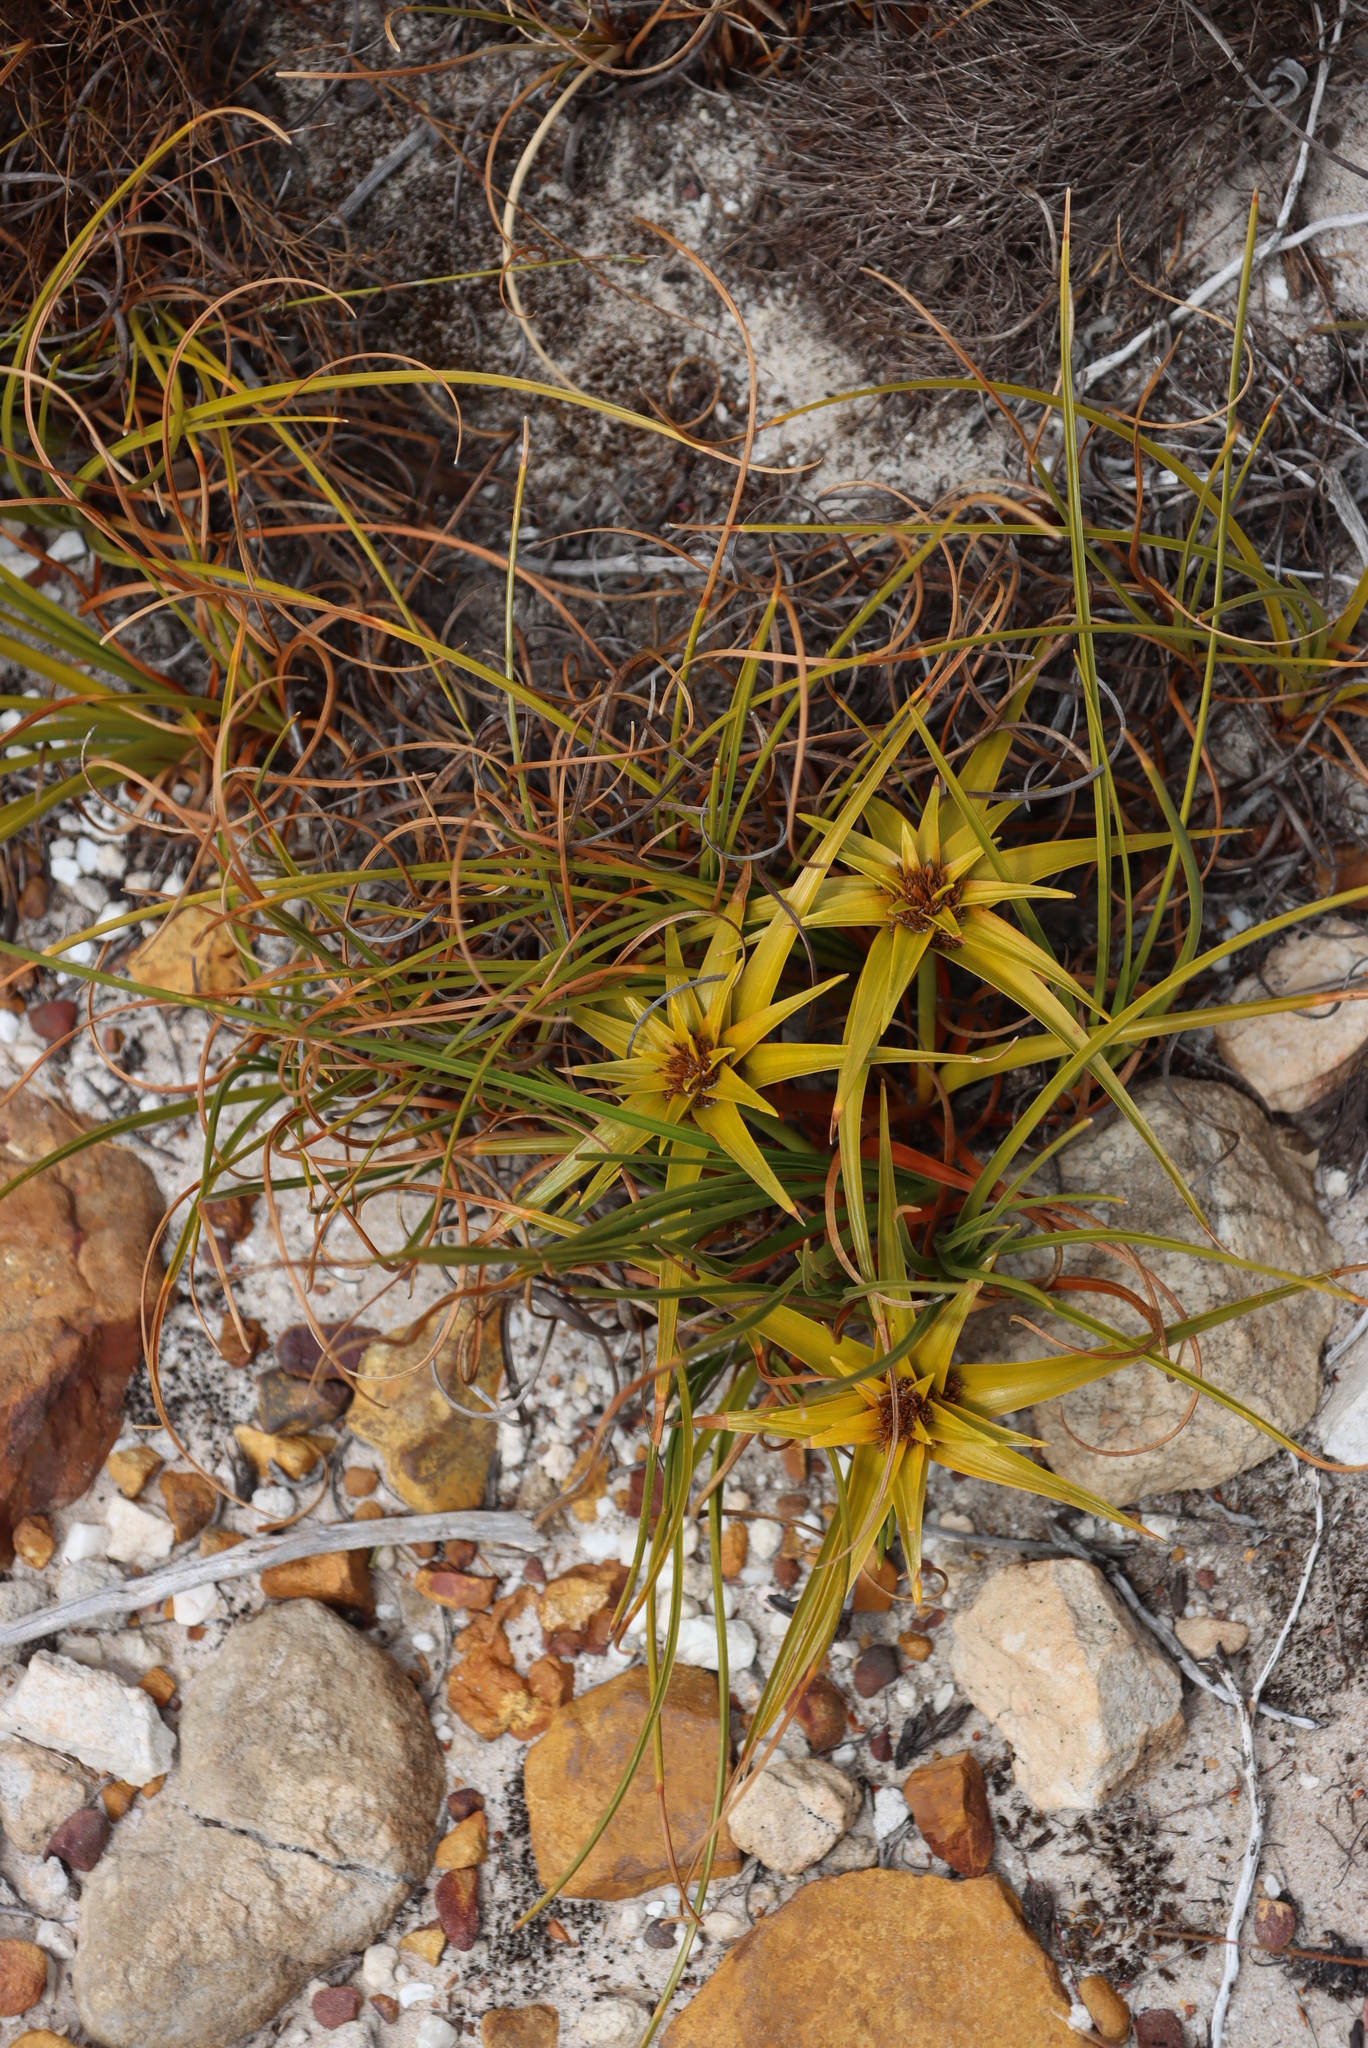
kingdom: Plantae
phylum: Tracheophyta
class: Liliopsida
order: Poales
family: Cyperaceae
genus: Ficinia
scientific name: Ficinia radiata
